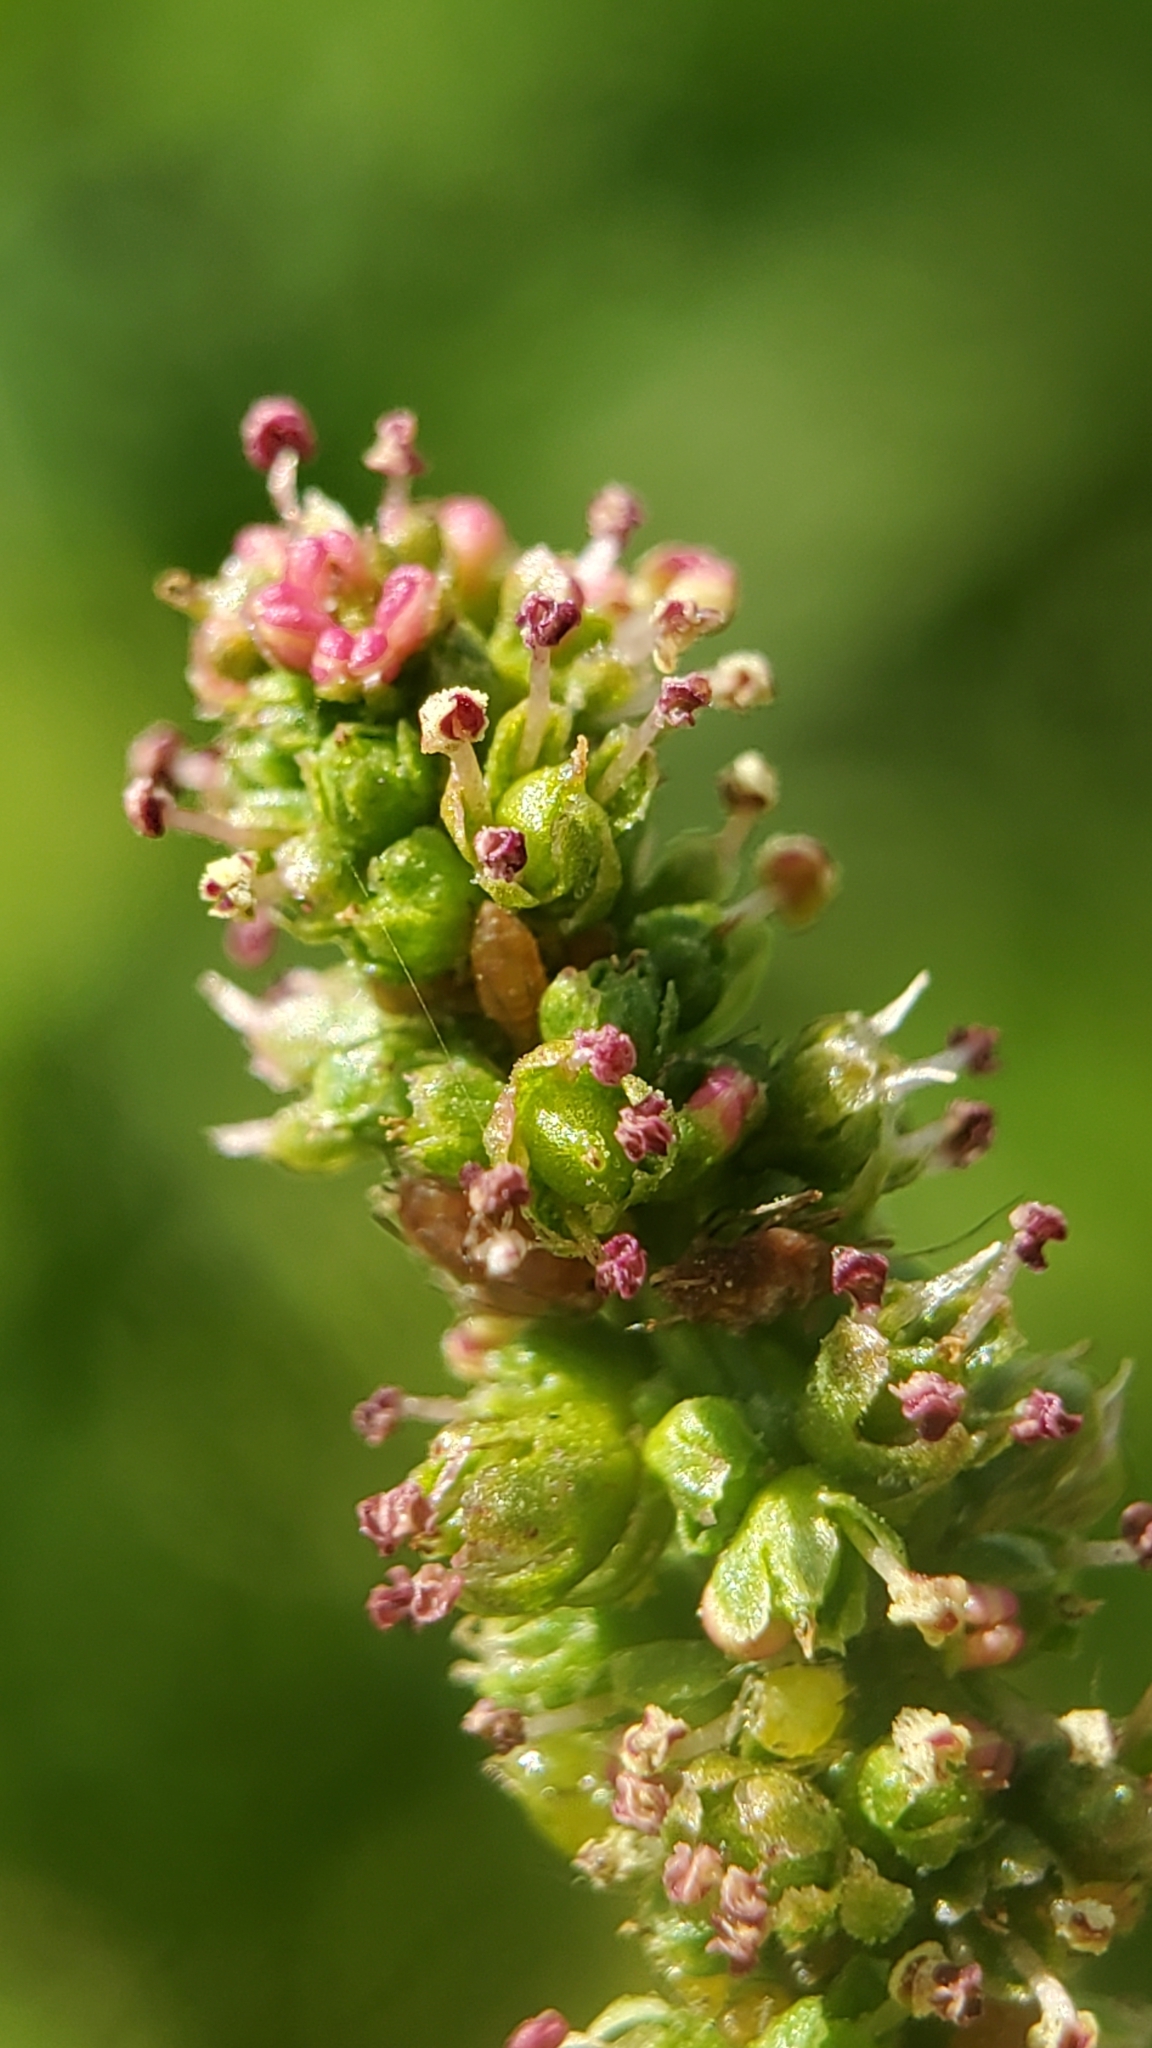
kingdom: Plantae
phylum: Tracheophyta
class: Magnoliopsida
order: Caryophyllales
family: Amaranthaceae
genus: Blitum
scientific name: Blitum californicum
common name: California goosefoot
